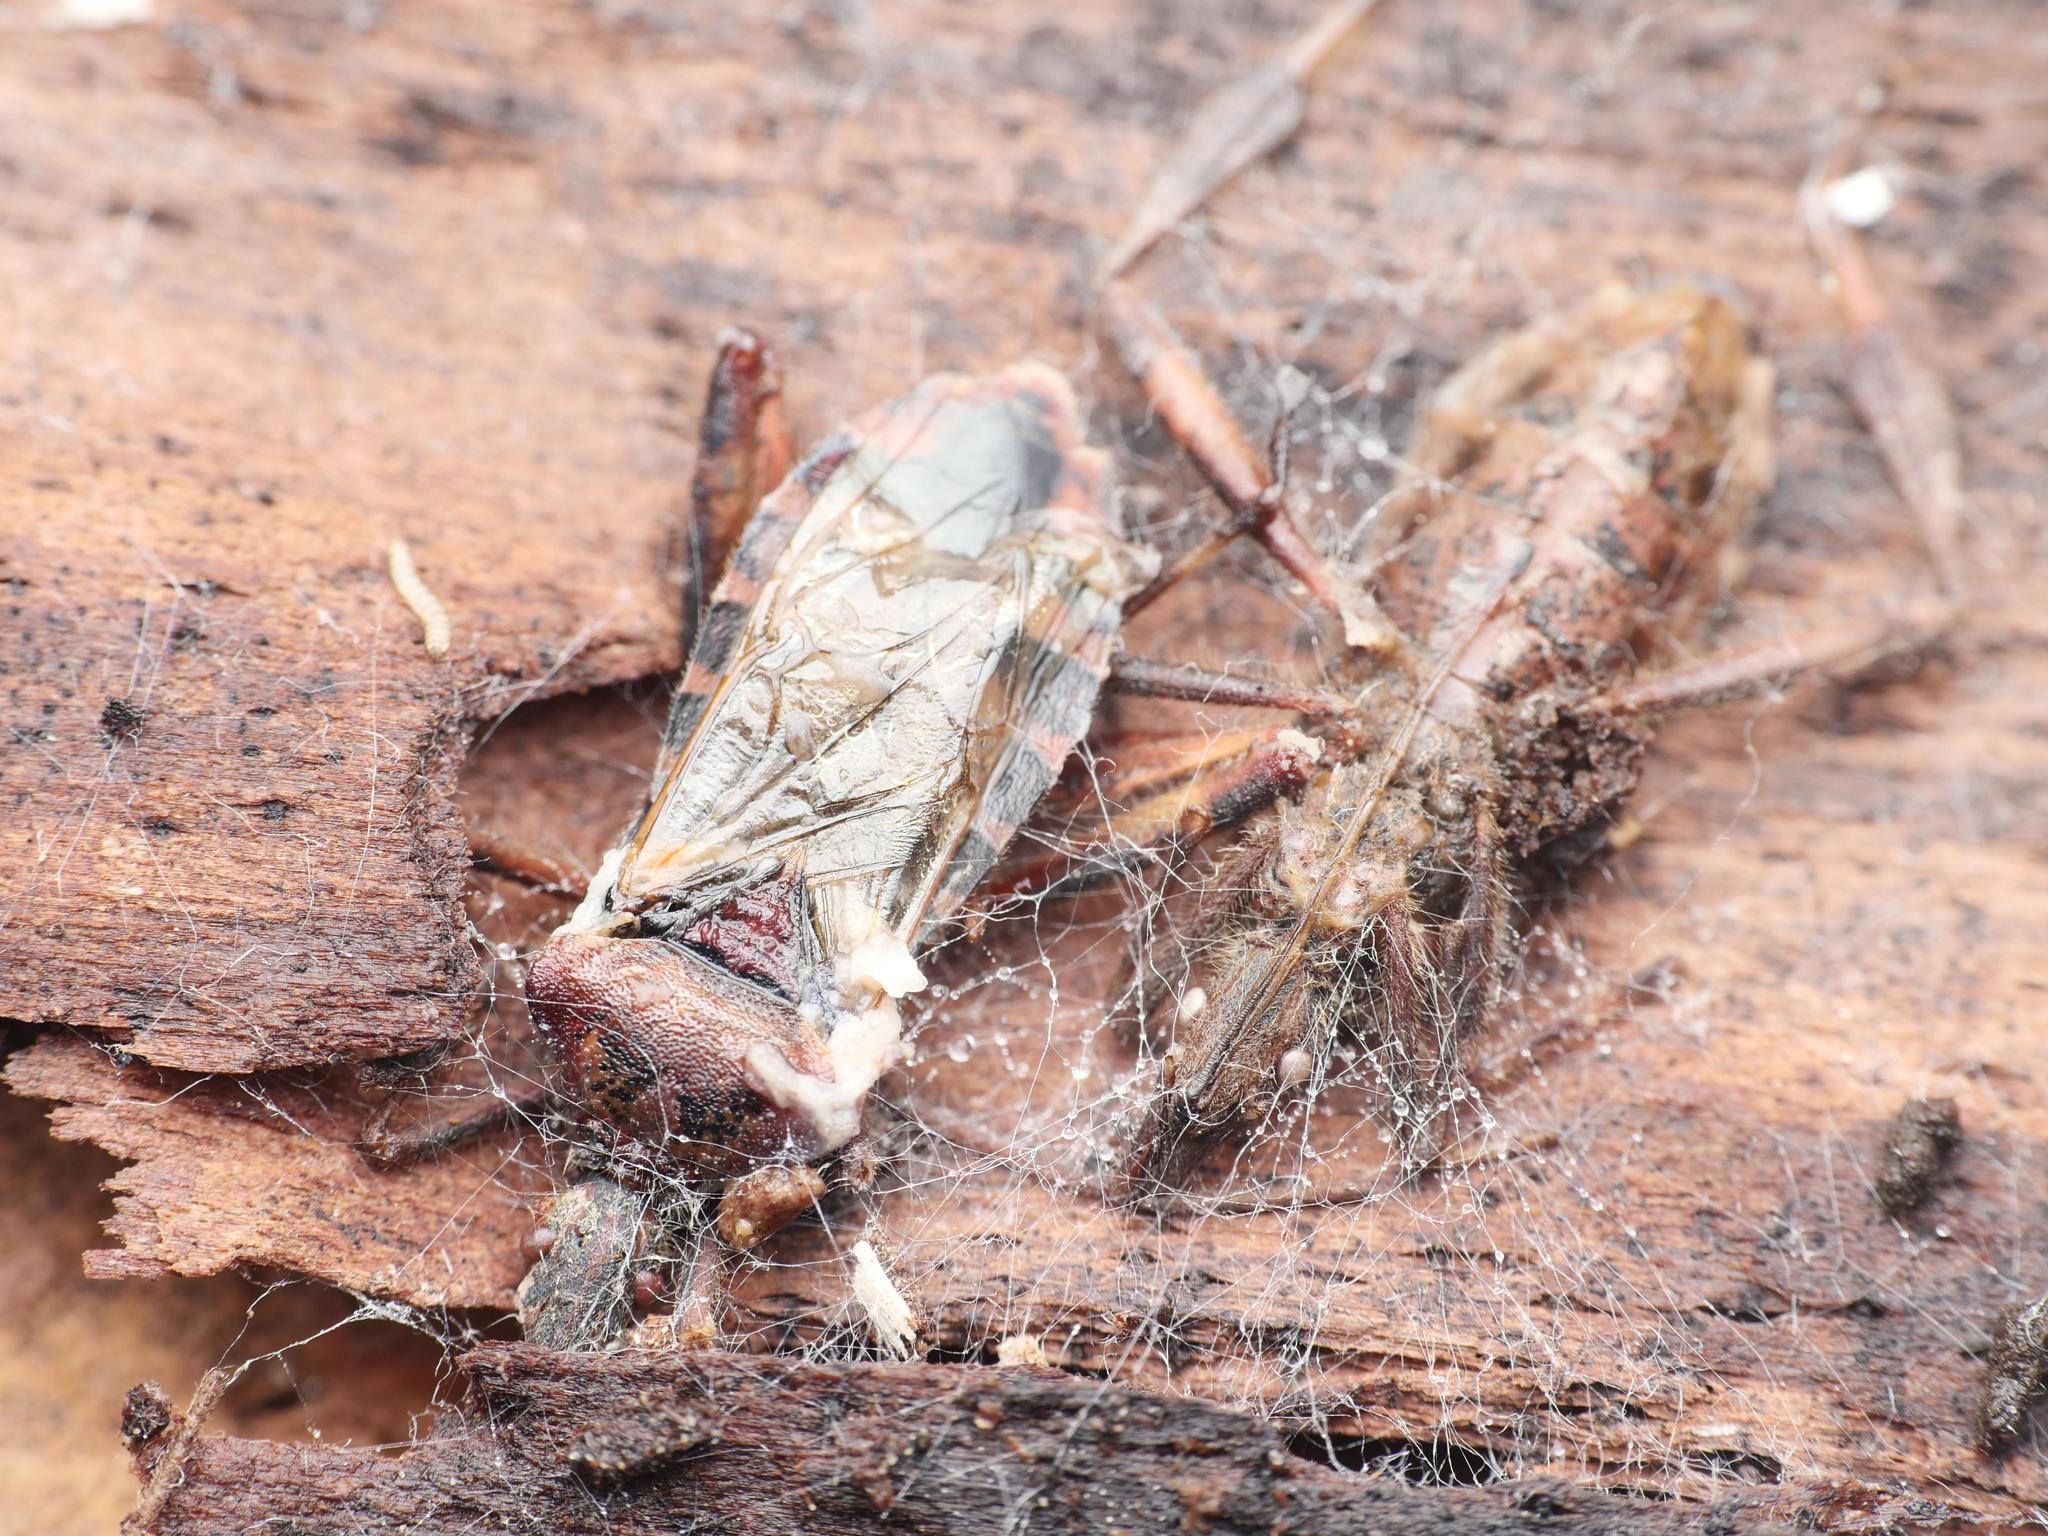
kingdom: Animalia
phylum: Arthropoda
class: Insecta
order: Hemiptera
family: Coreidae
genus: Leptoglossus
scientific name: Leptoglossus occidentalis
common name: Western conifer-seed bug
